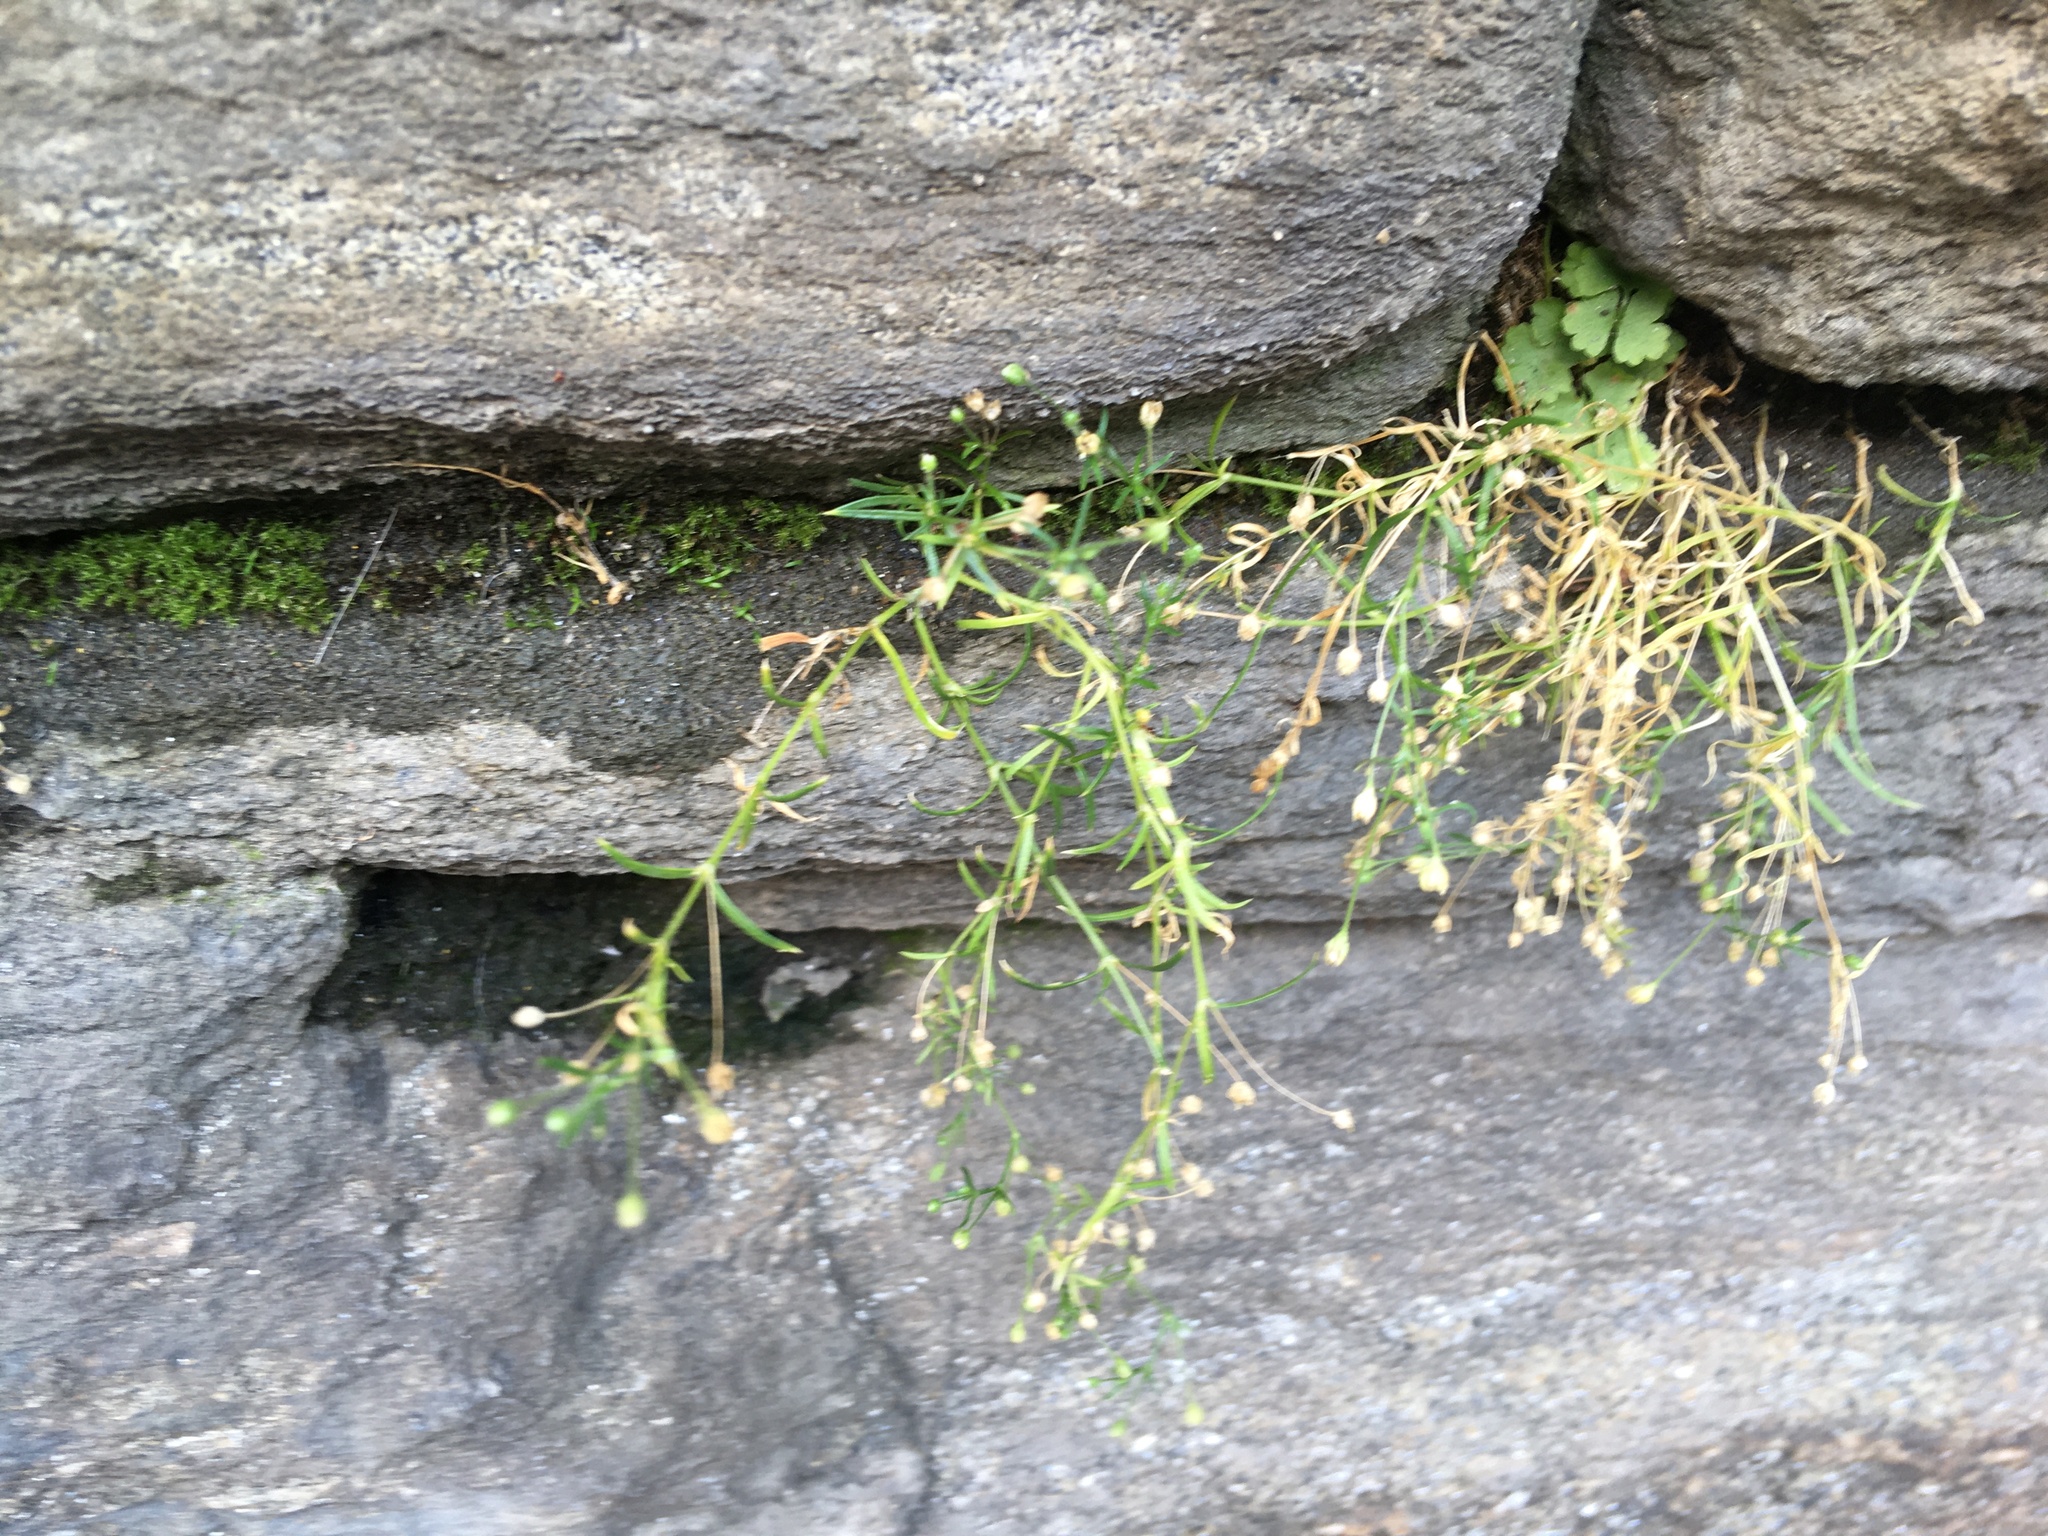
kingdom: Plantae
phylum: Tracheophyta
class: Magnoliopsida
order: Caryophyllales
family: Caryophyllaceae
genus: Sagina
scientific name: Sagina japonica
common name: Japanese pearlwort
